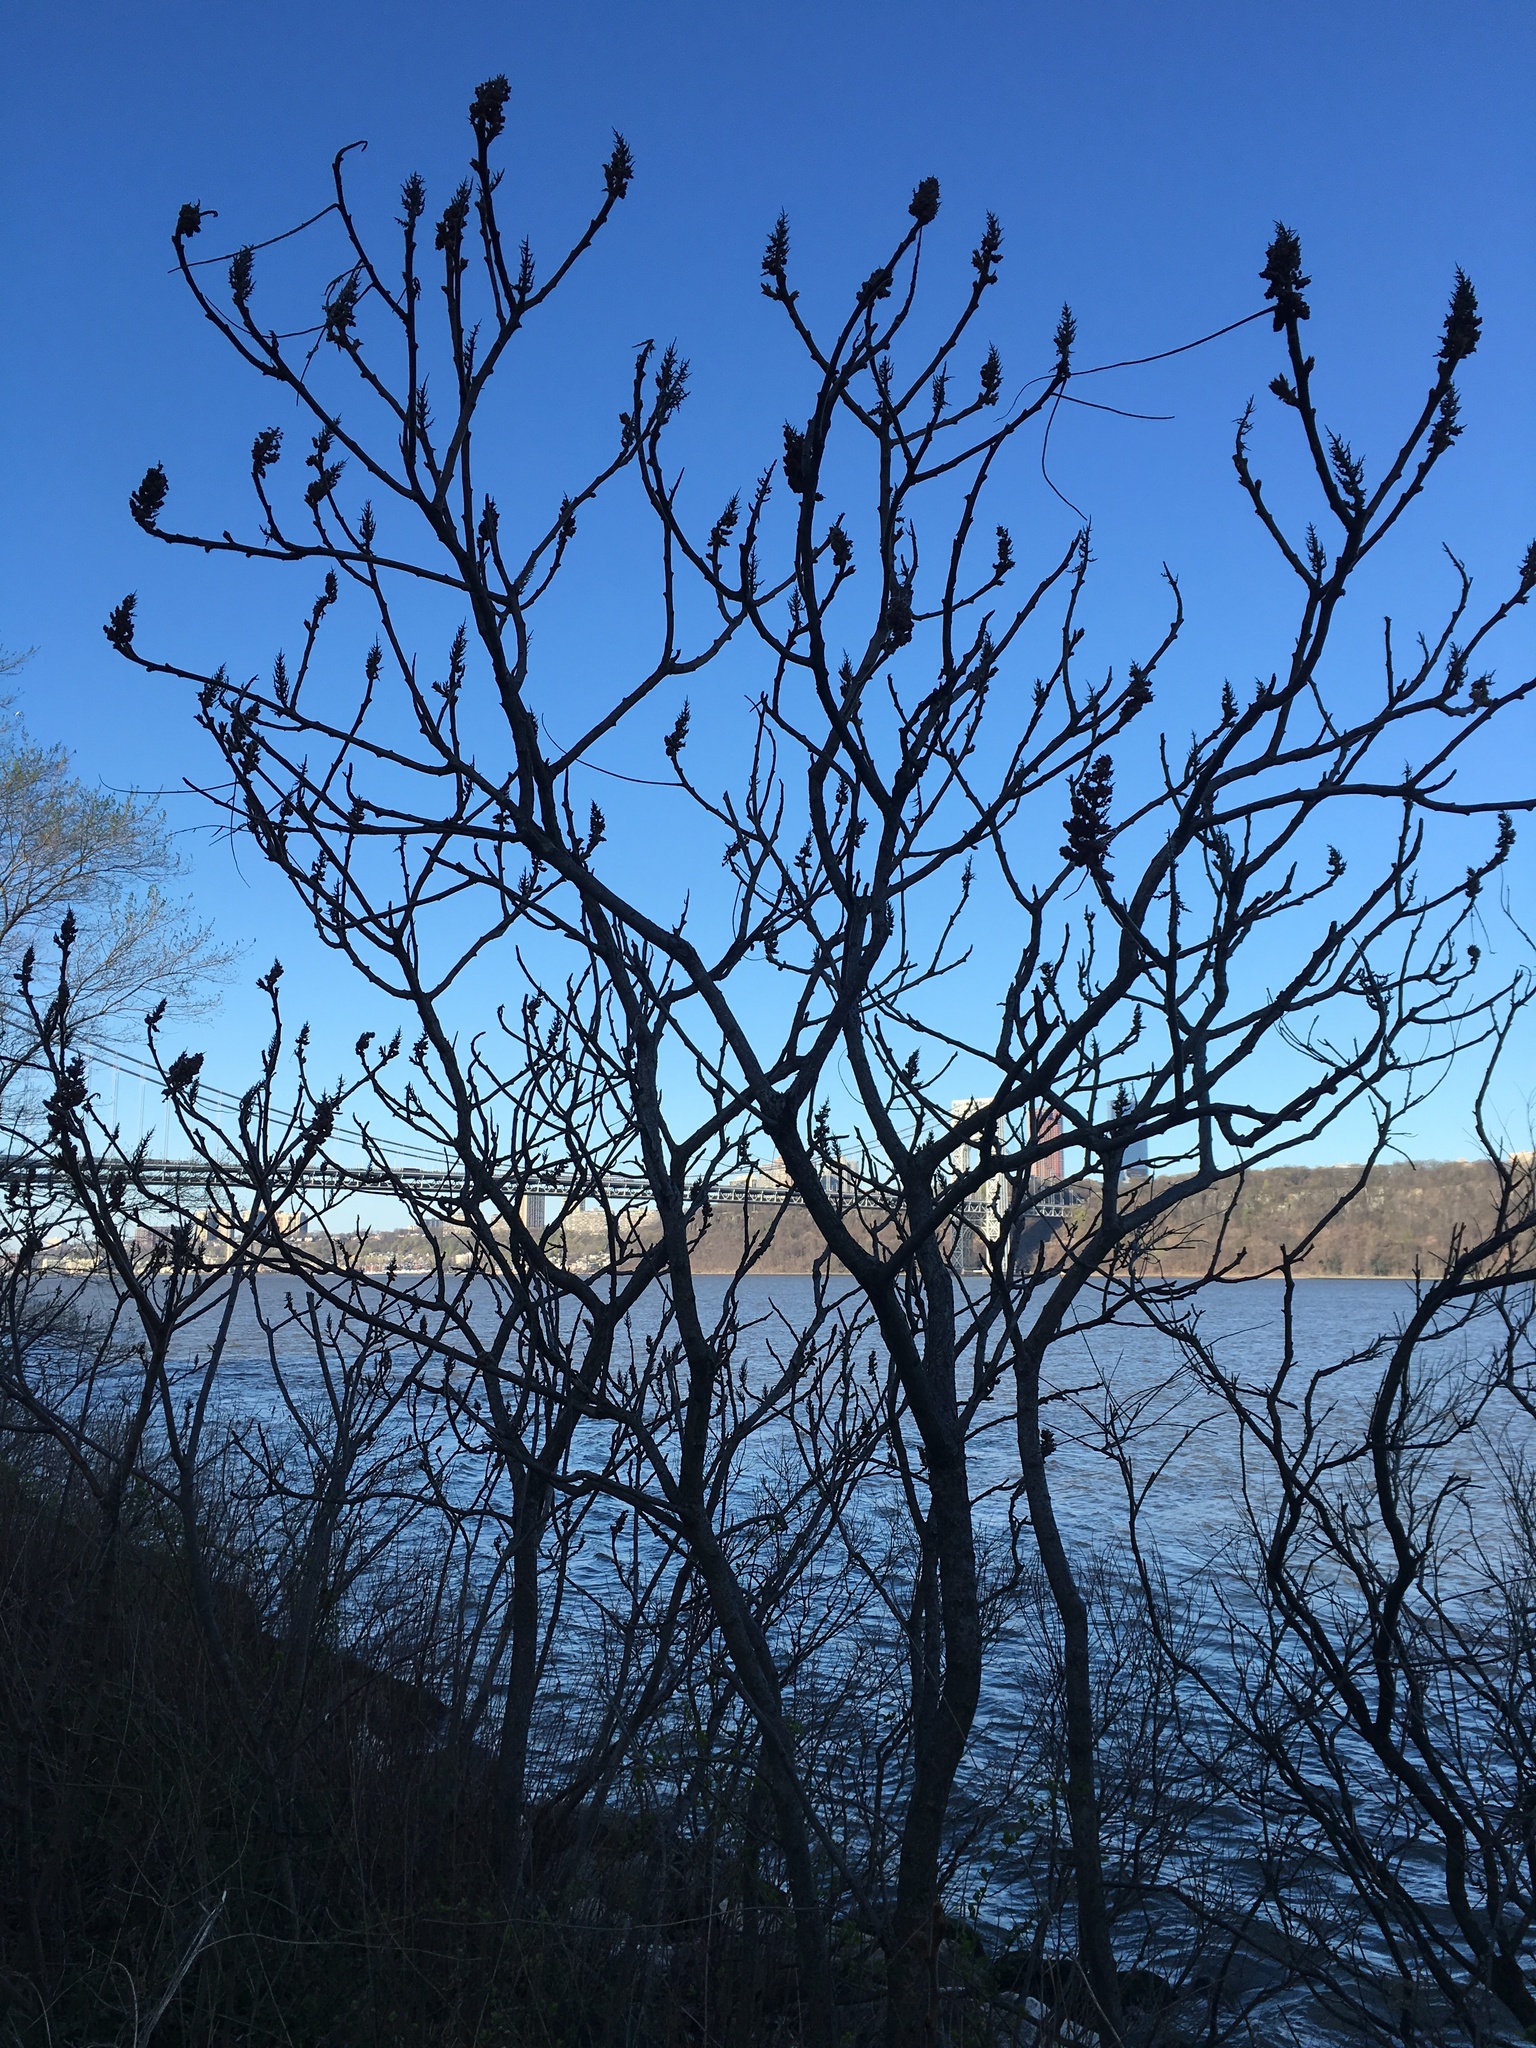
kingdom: Plantae
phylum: Tracheophyta
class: Magnoliopsida
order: Sapindales
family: Anacardiaceae
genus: Rhus
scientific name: Rhus typhina
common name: Staghorn sumac
